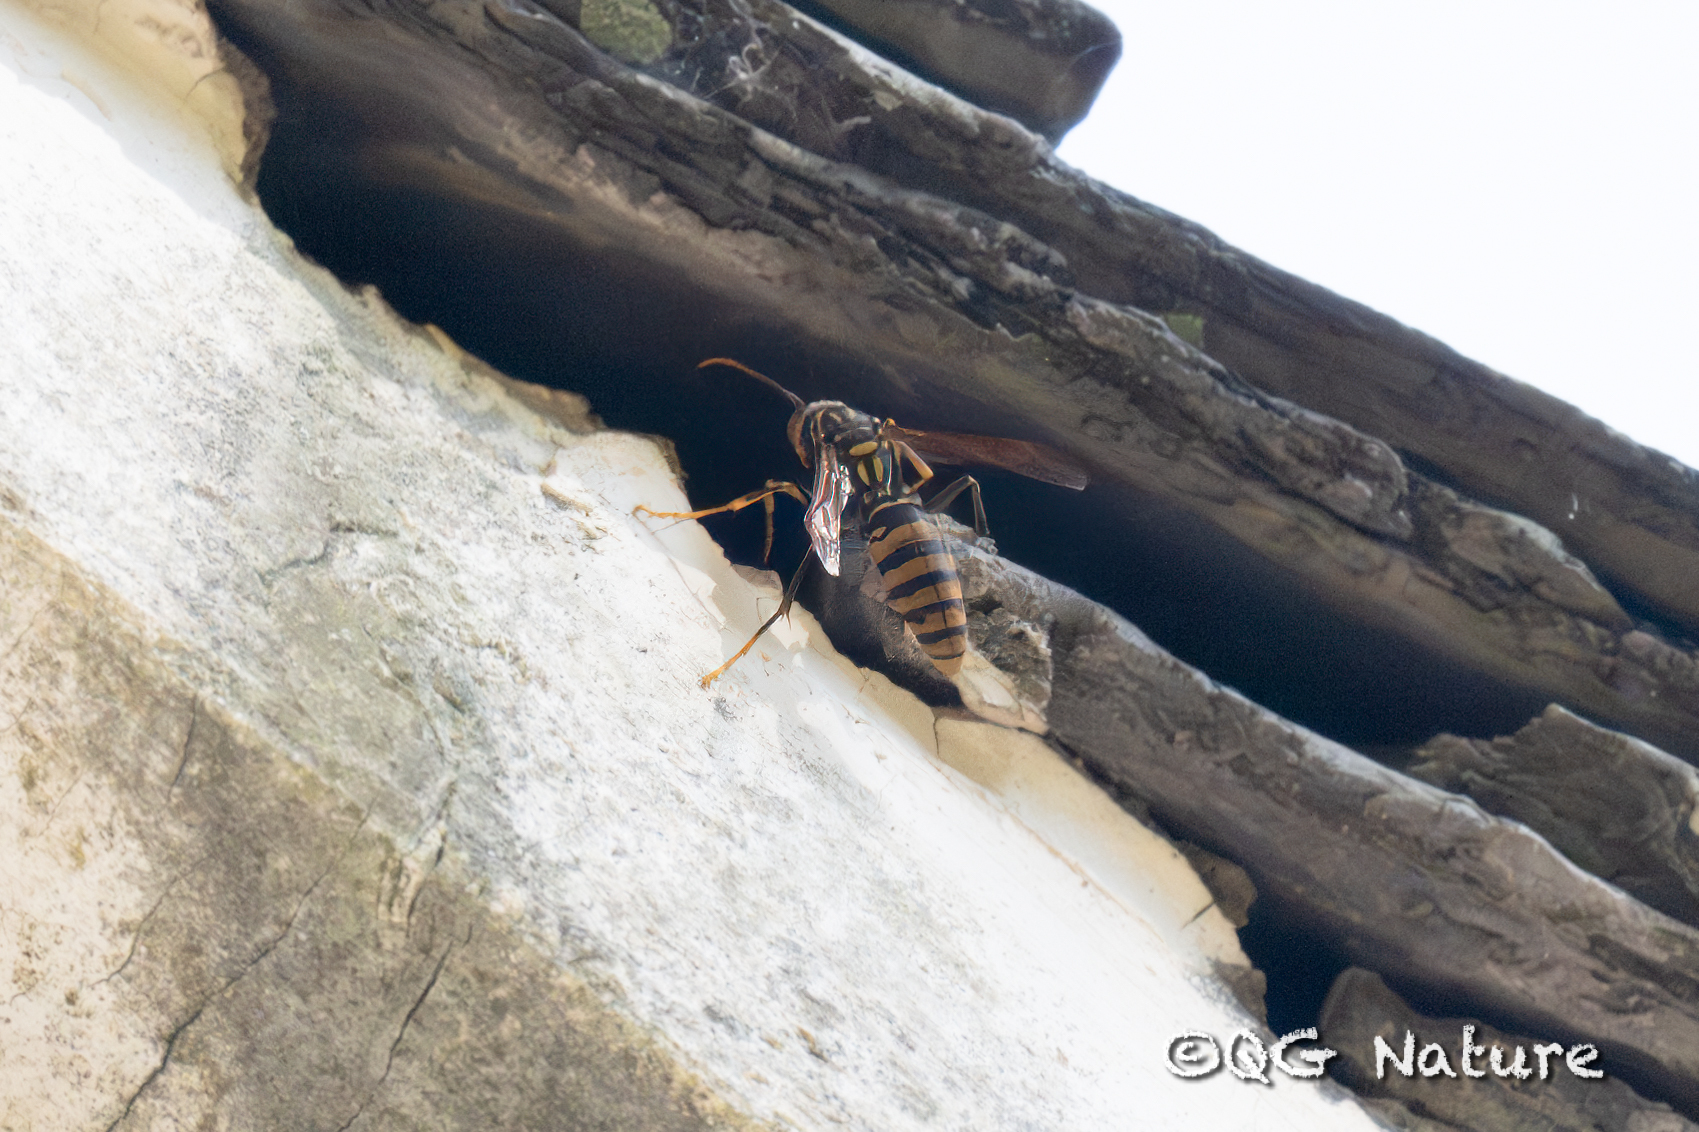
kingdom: Animalia
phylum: Arthropoda
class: Insecta
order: Hymenoptera
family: Eumenidae
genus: Polistes
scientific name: Polistes rothneyi
